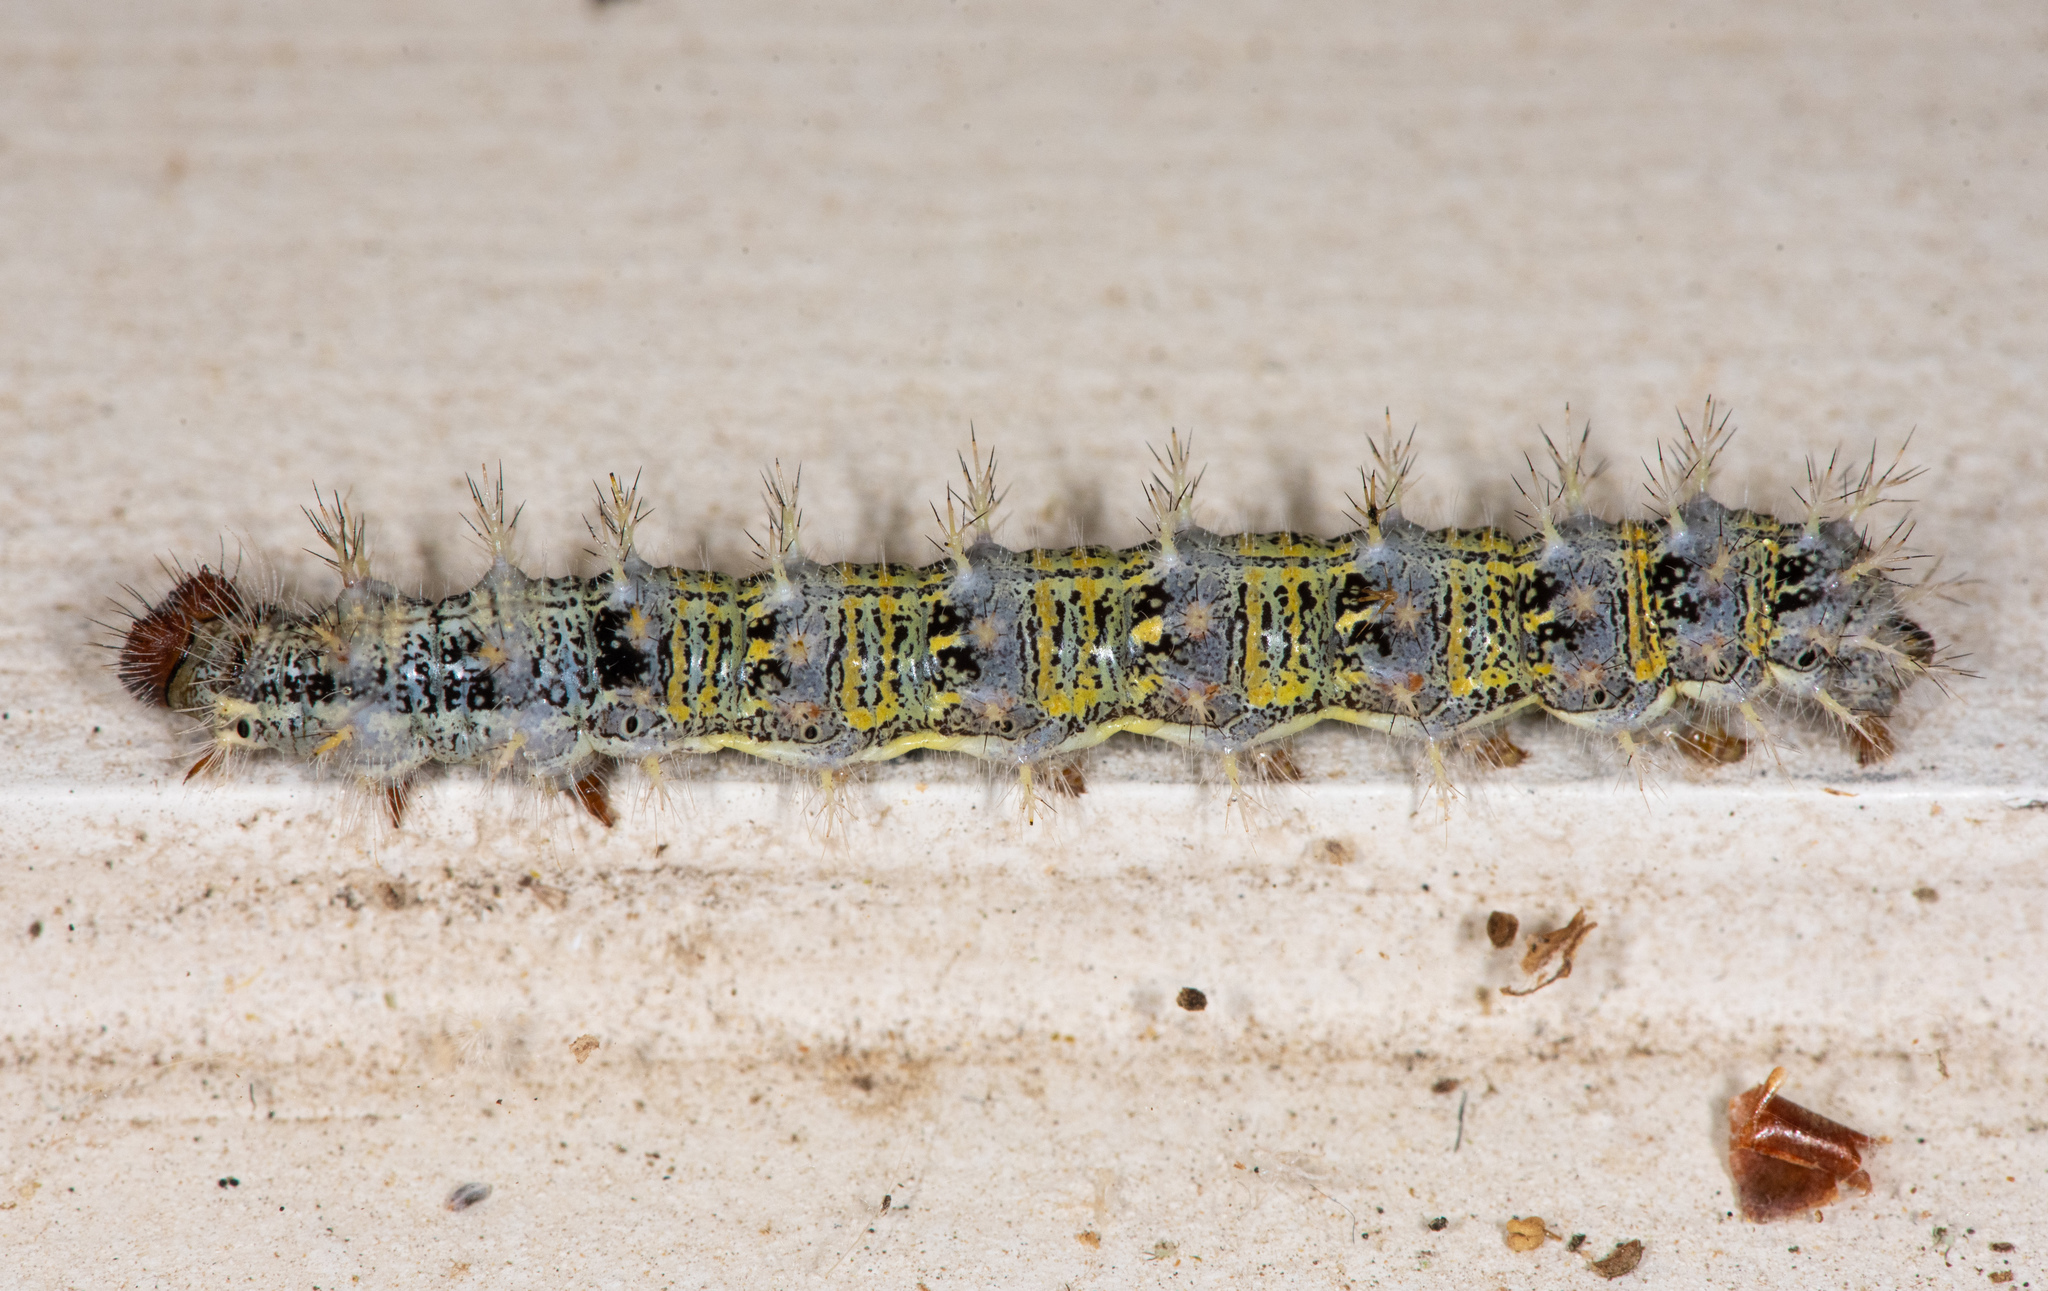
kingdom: Animalia
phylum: Arthropoda
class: Insecta
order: Lepidoptera
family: Nymphalidae
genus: Vanessa
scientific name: Vanessa cardui
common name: Painted lady
